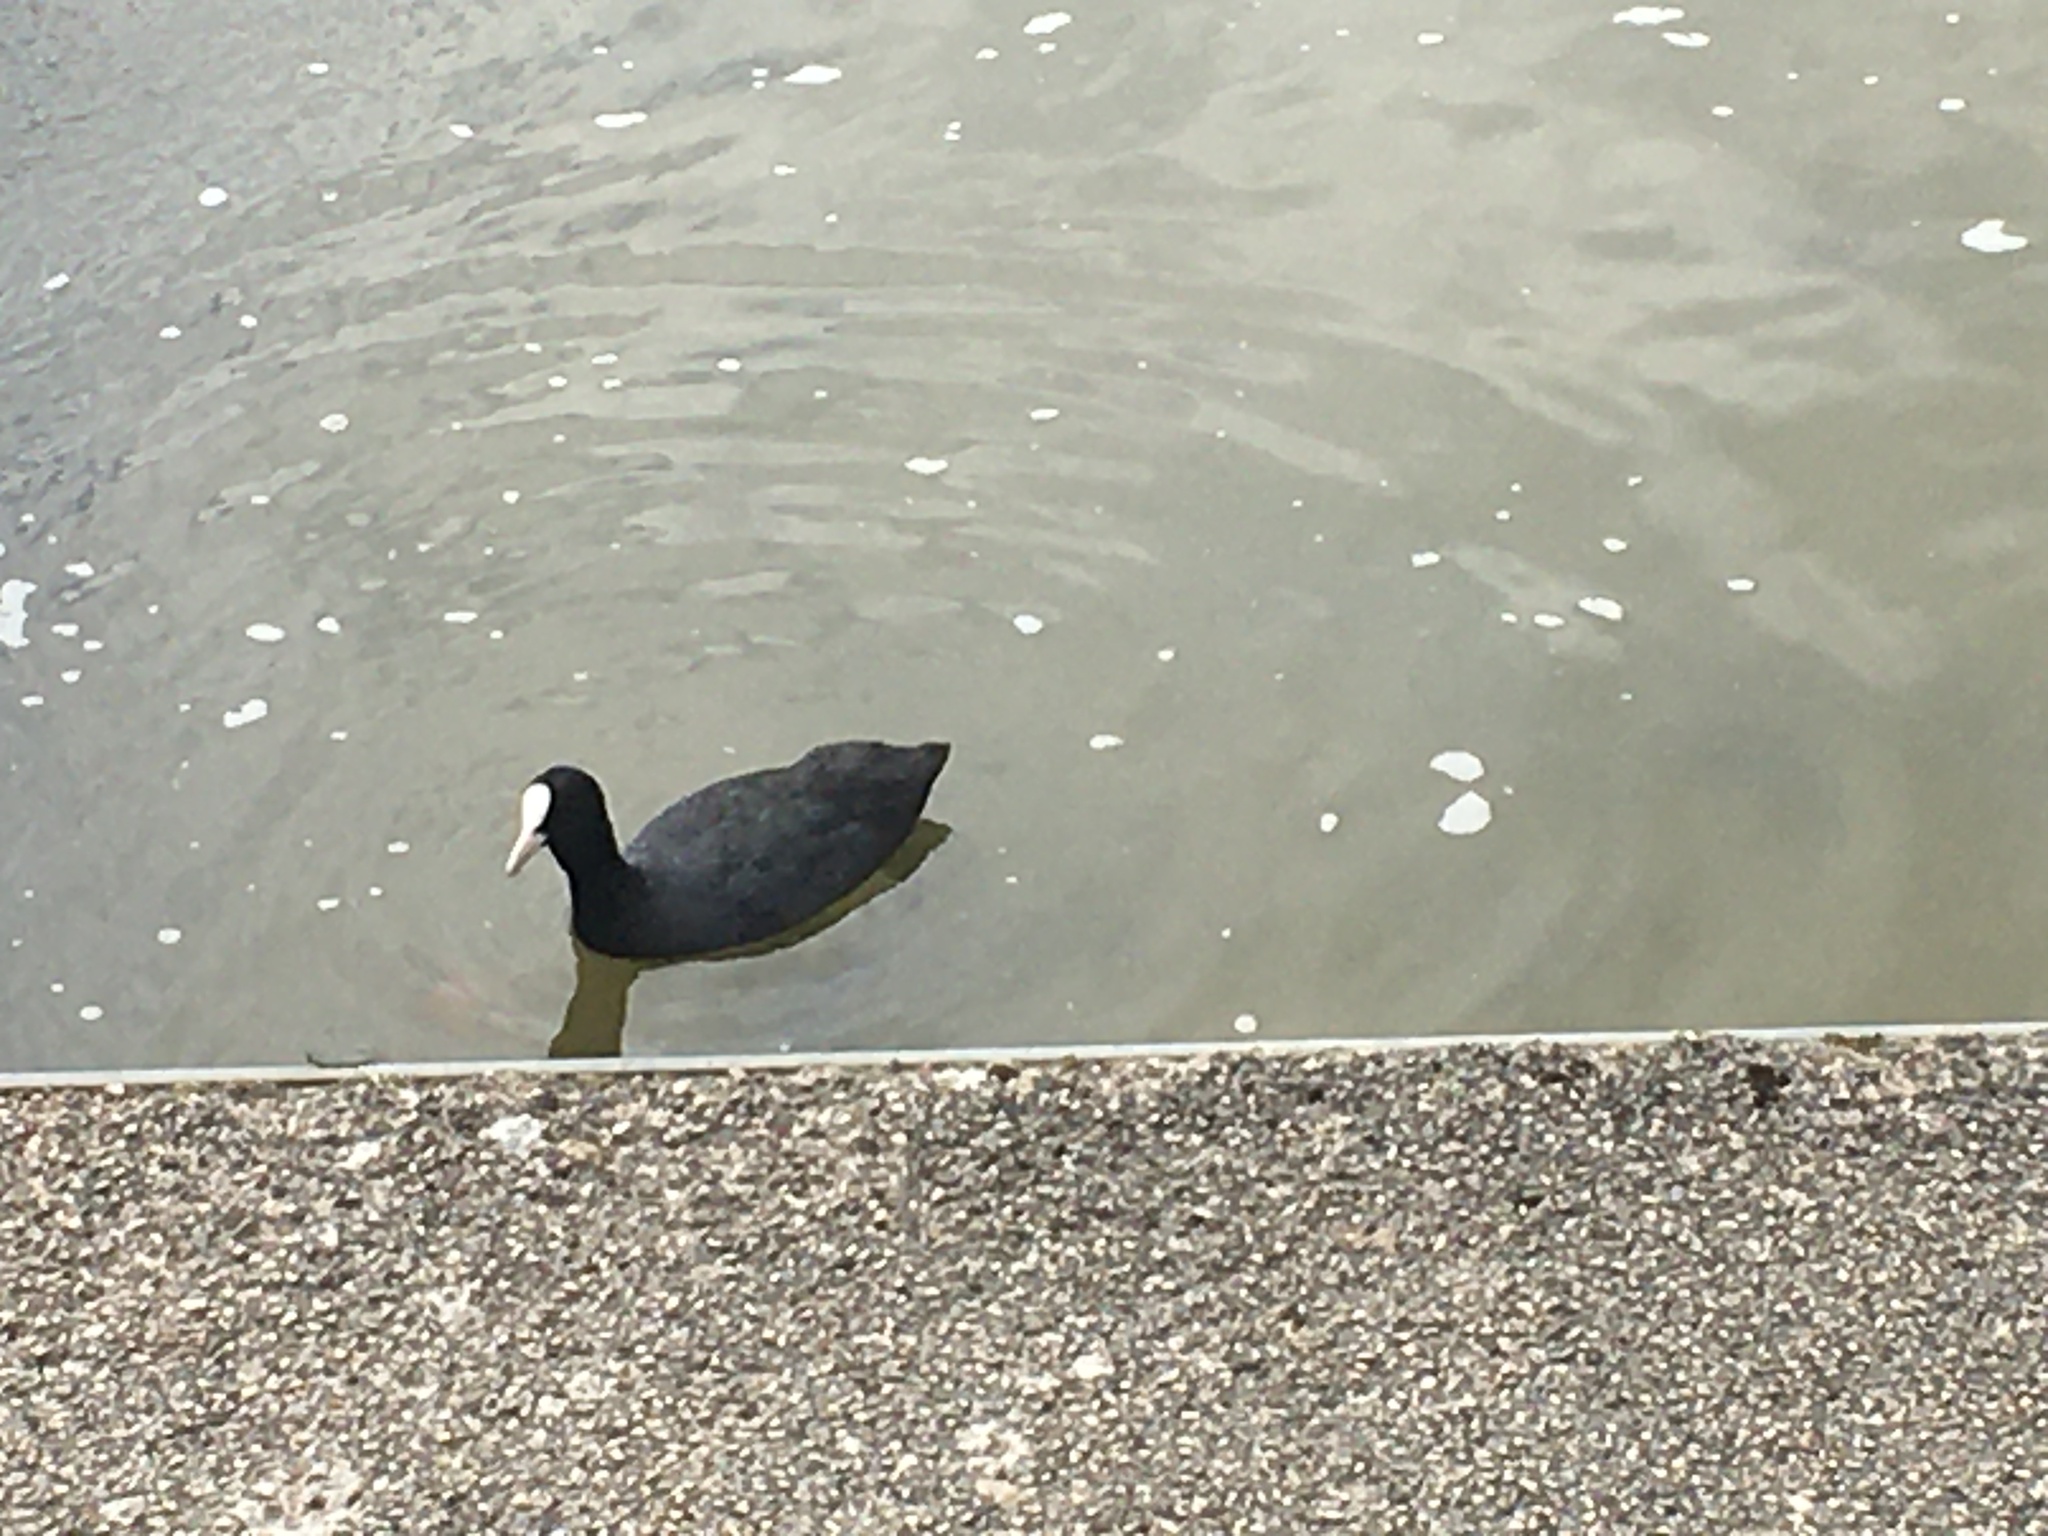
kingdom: Animalia
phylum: Chordata
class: Aves
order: Gruiformes
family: Rallidae
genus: Fulica
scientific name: Fulica atra
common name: Eurasian coot
